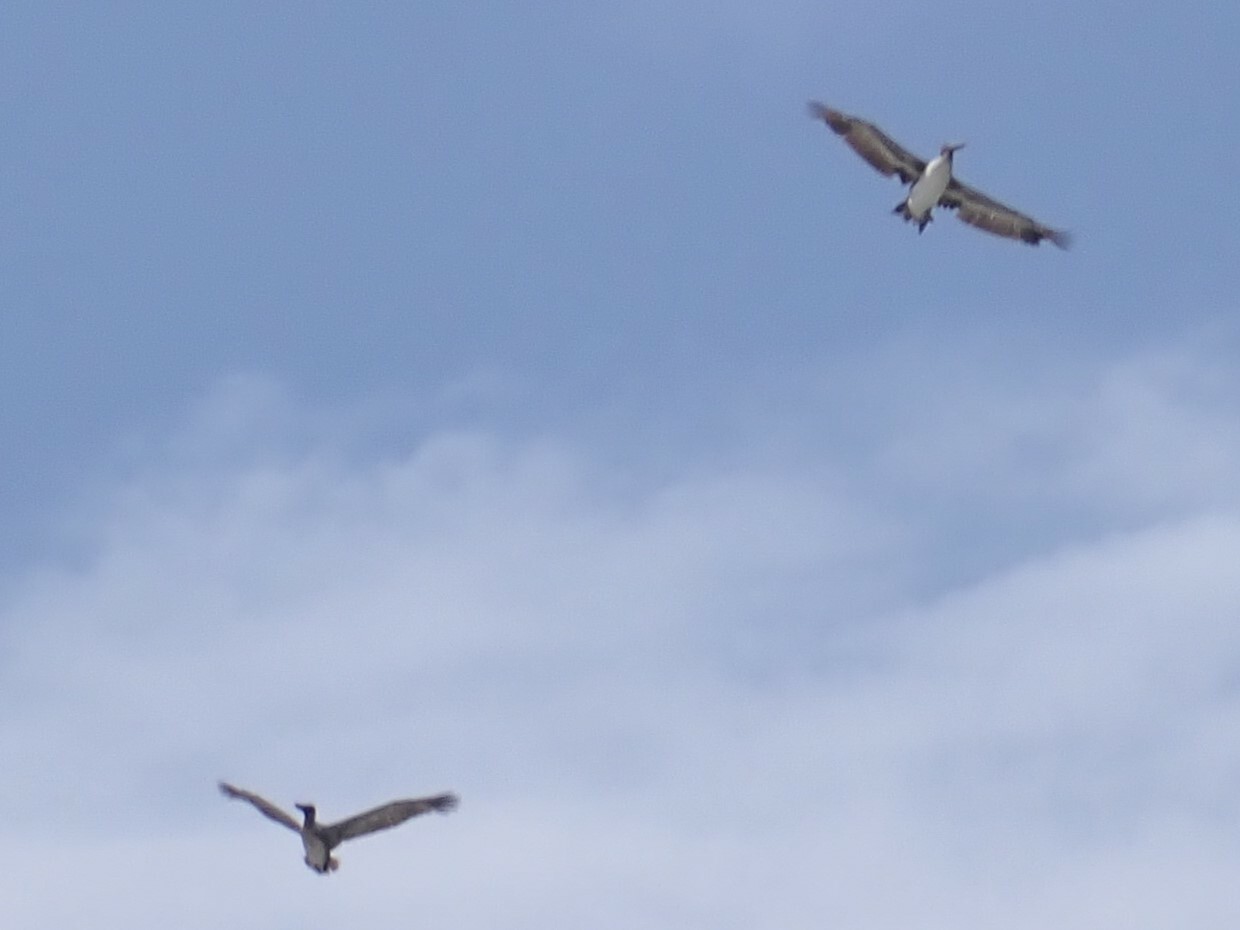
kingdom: Animalia
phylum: Chordata
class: Aves
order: Pelecaniformes
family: Pelecanidae
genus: Pelecanus
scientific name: Pelecanus occidentalis
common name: Brown pelican
